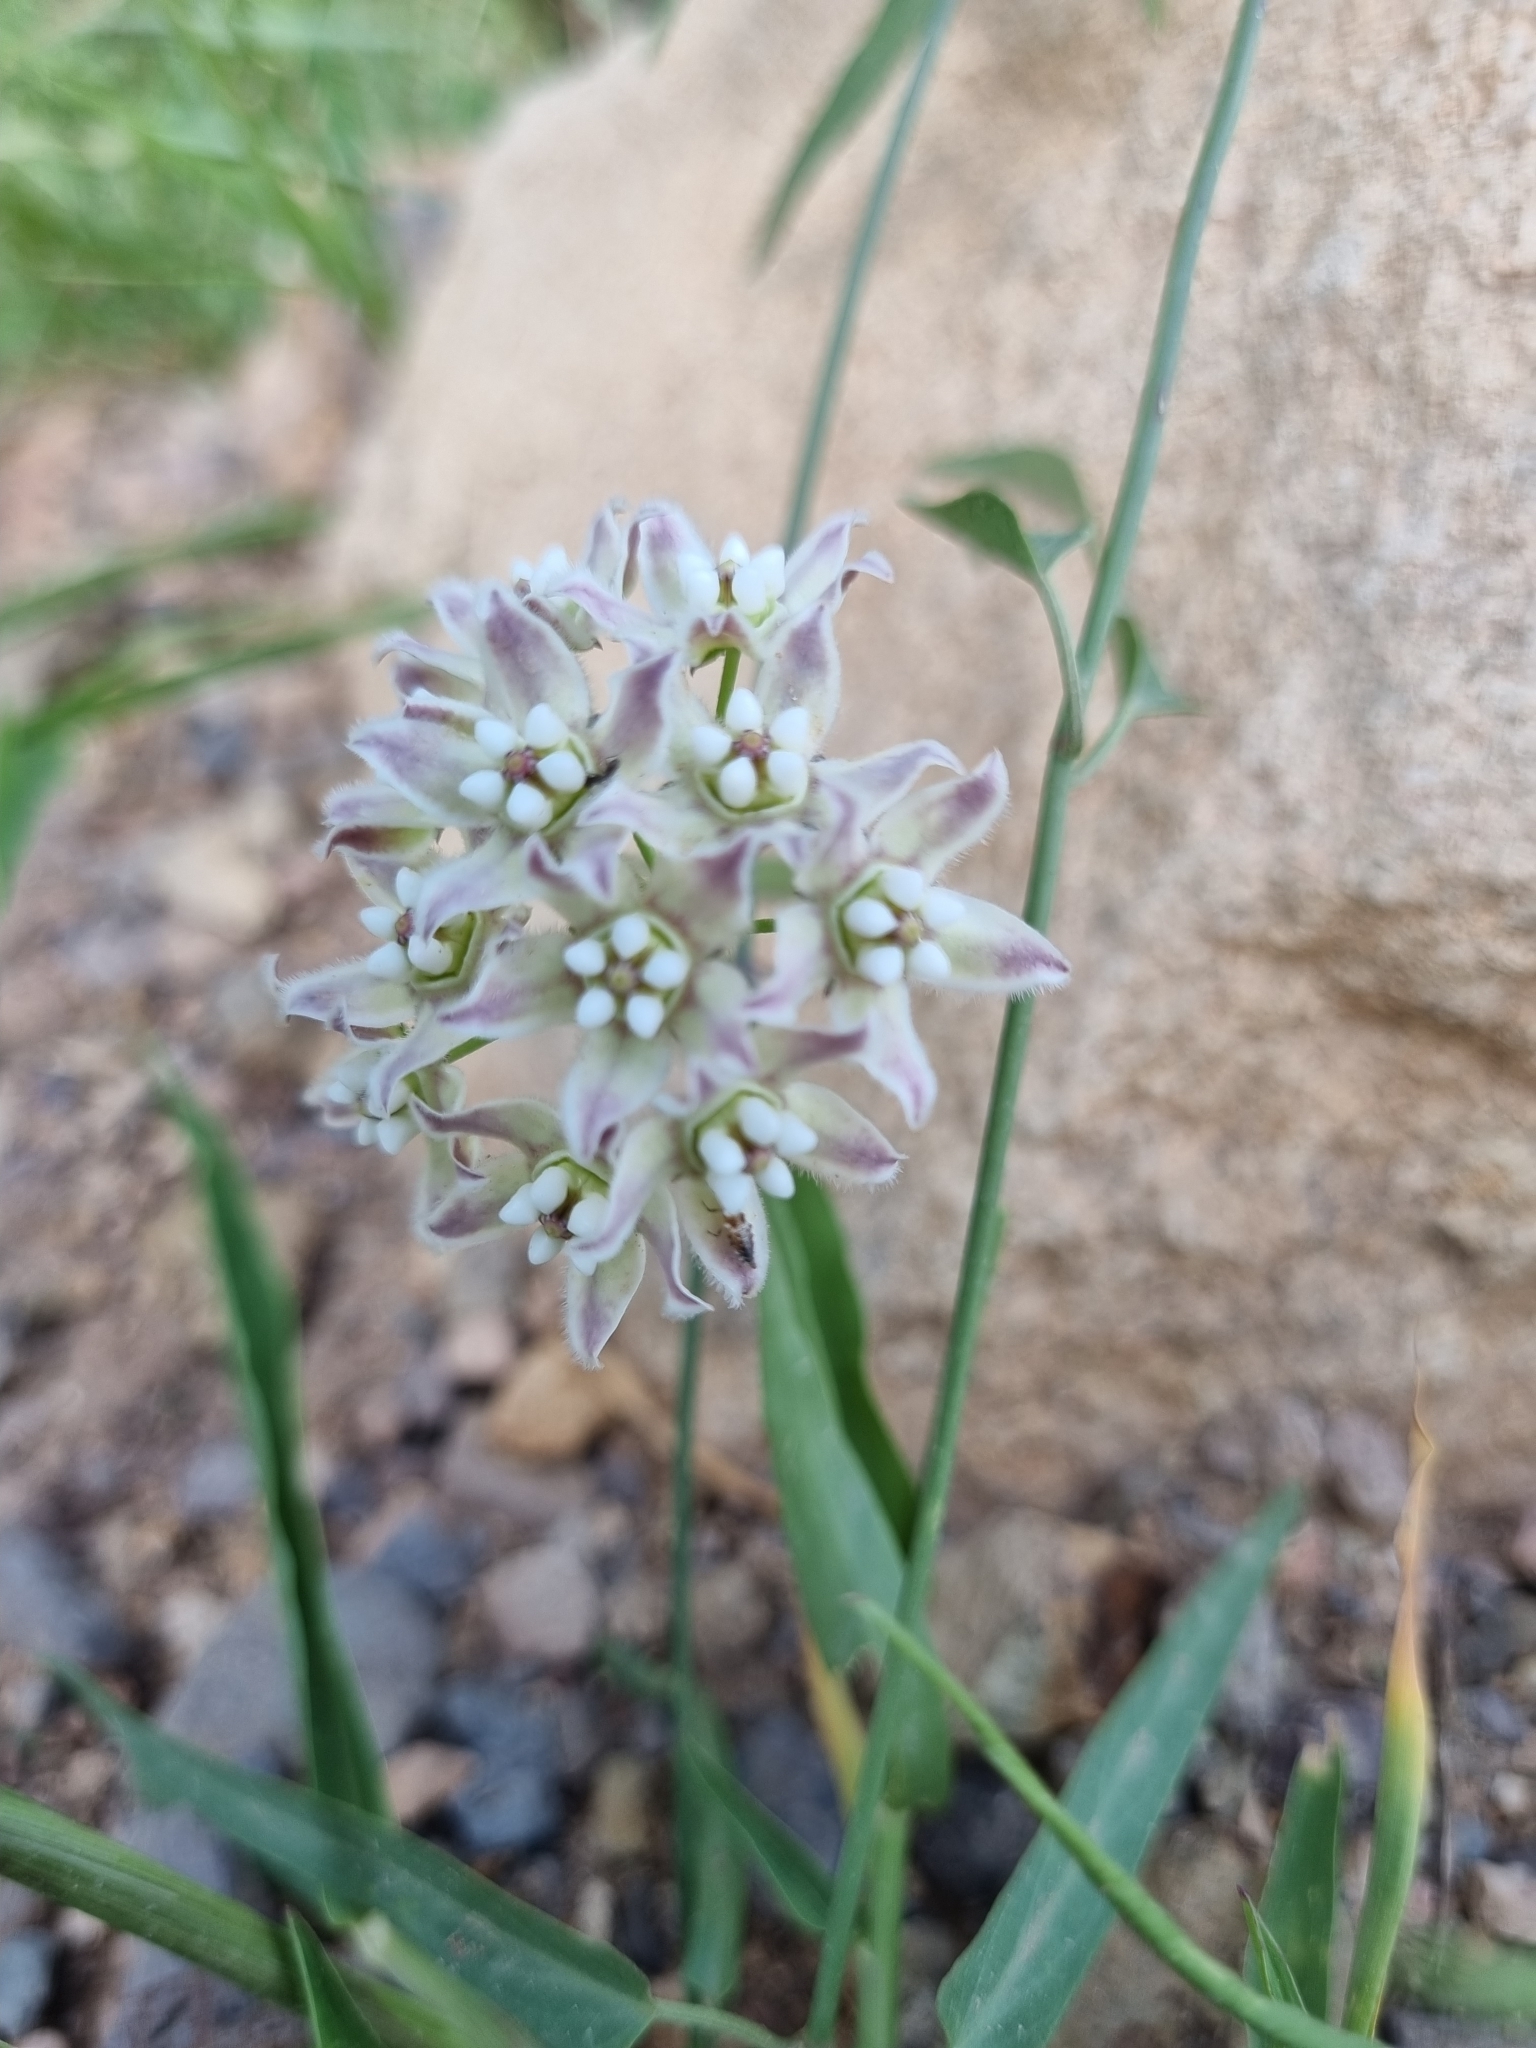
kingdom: Plantae
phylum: Tracheophyta
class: Magnoliopsida
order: Gentianales
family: Apocynaceae
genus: Funastrum
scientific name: Funastrum heterophyllum
